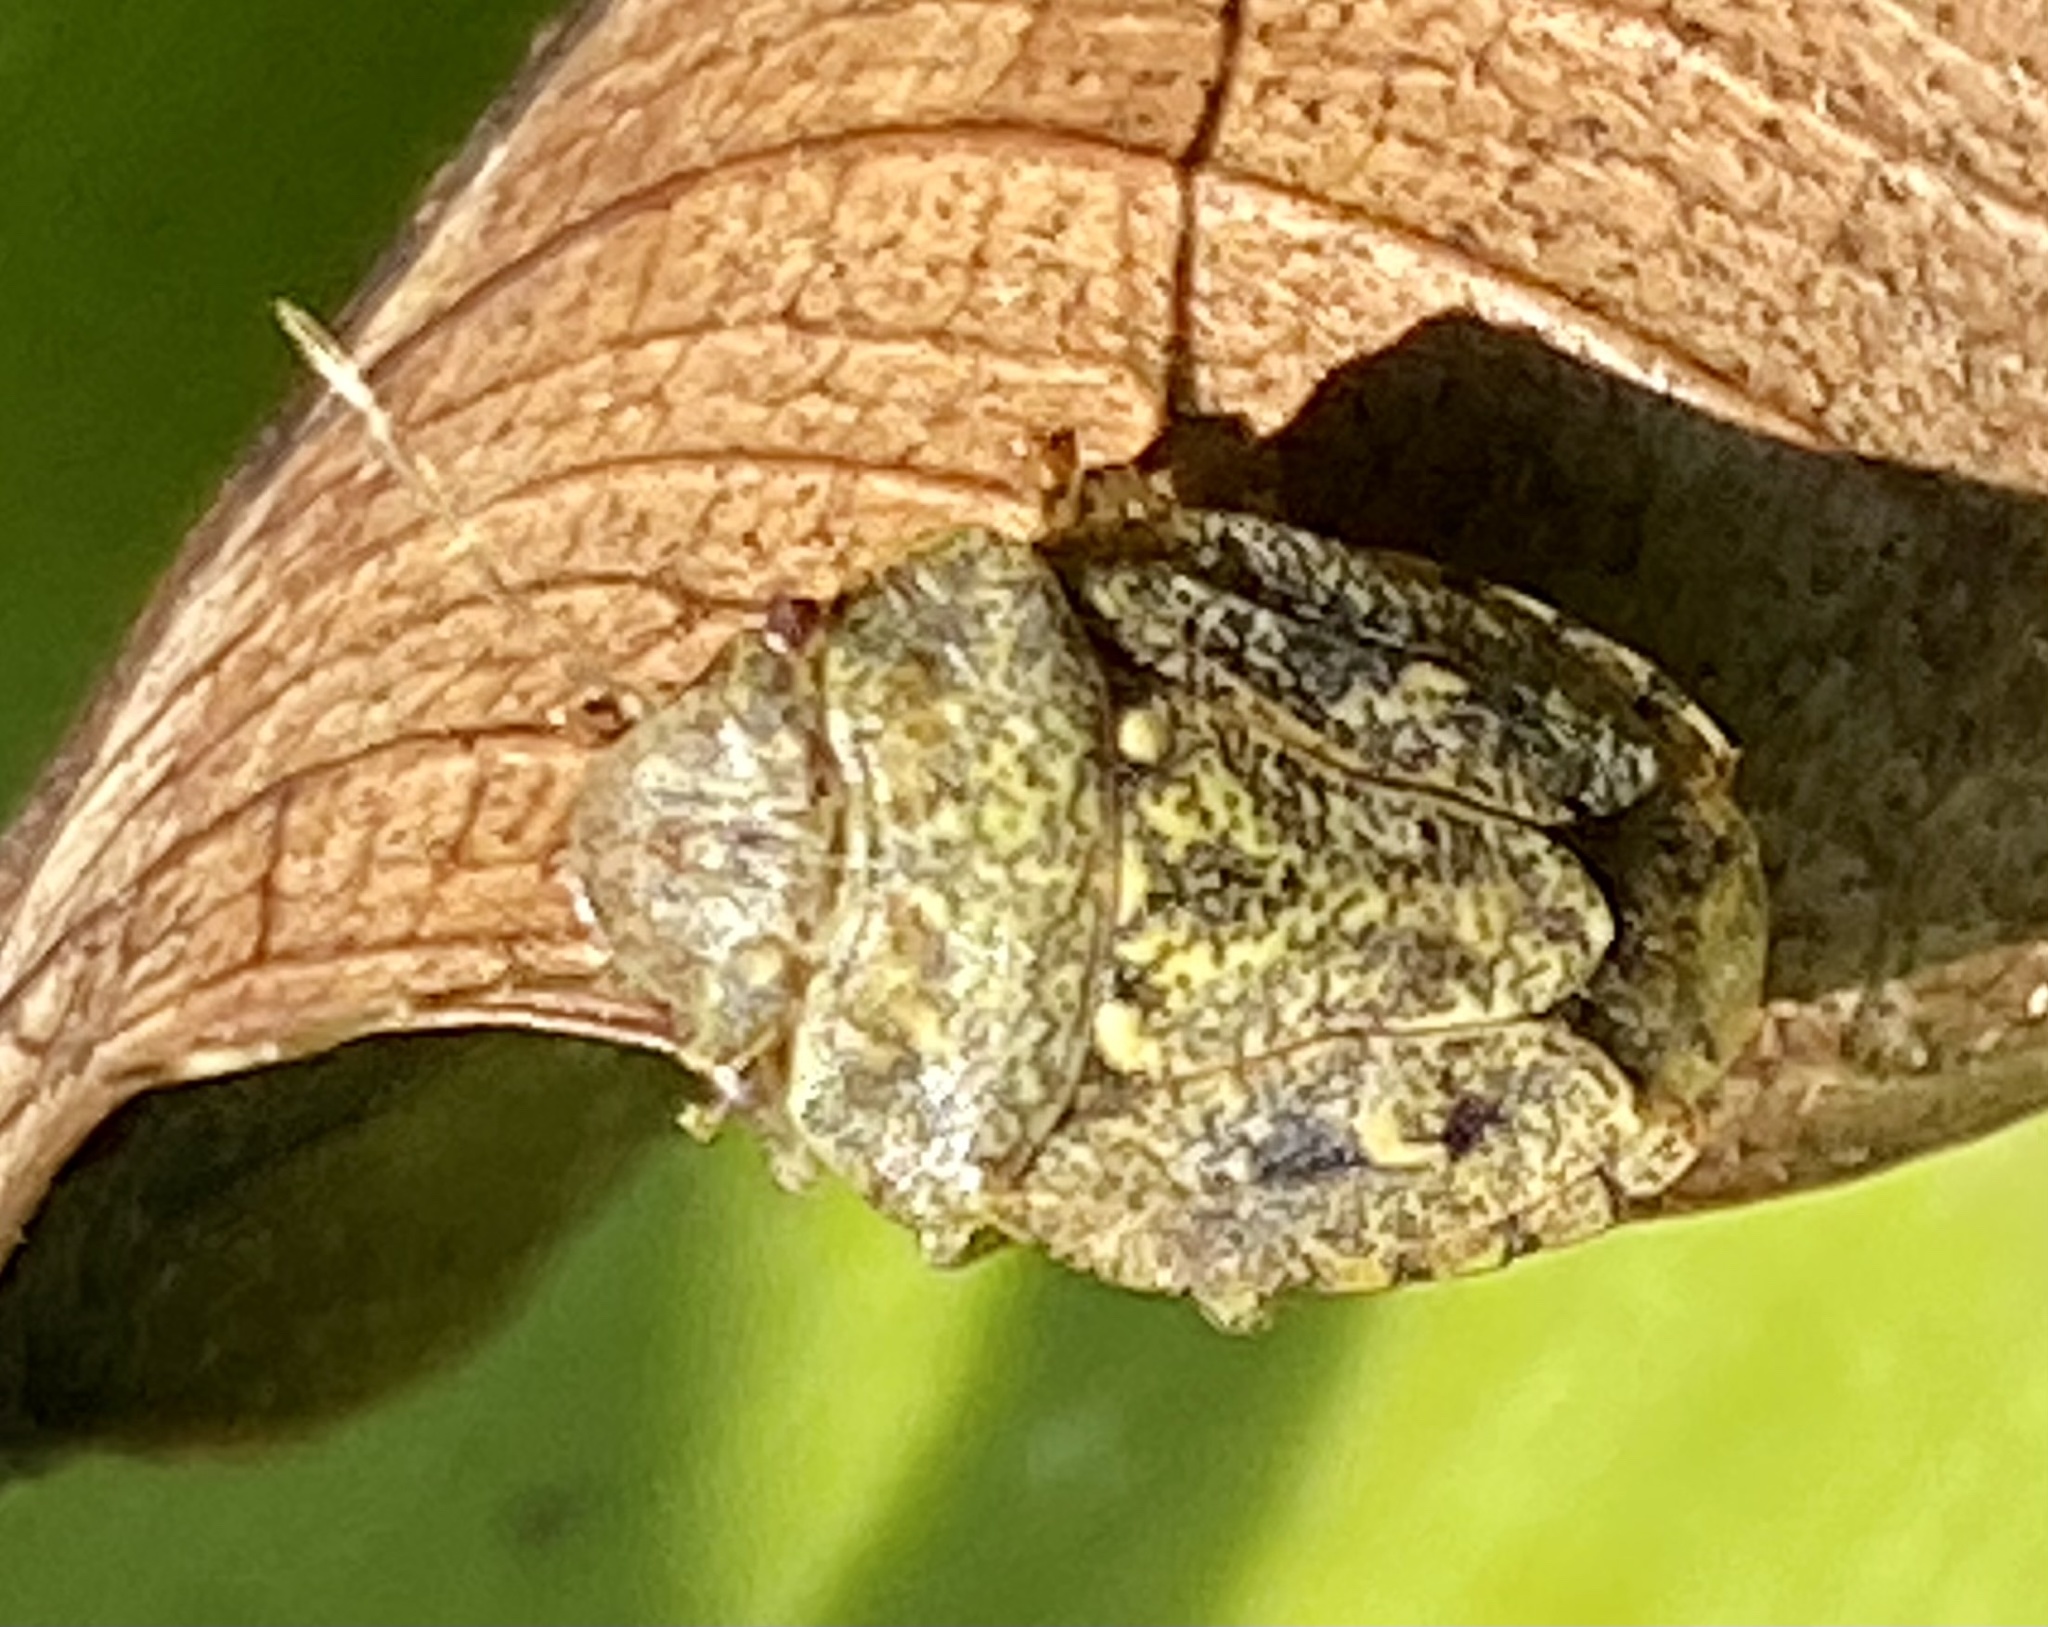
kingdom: Animalia
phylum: Arthropoda
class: Insecta
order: Hemiptera
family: Pentatomidae
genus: Acclivilamna
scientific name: Acclivilamna vicina
